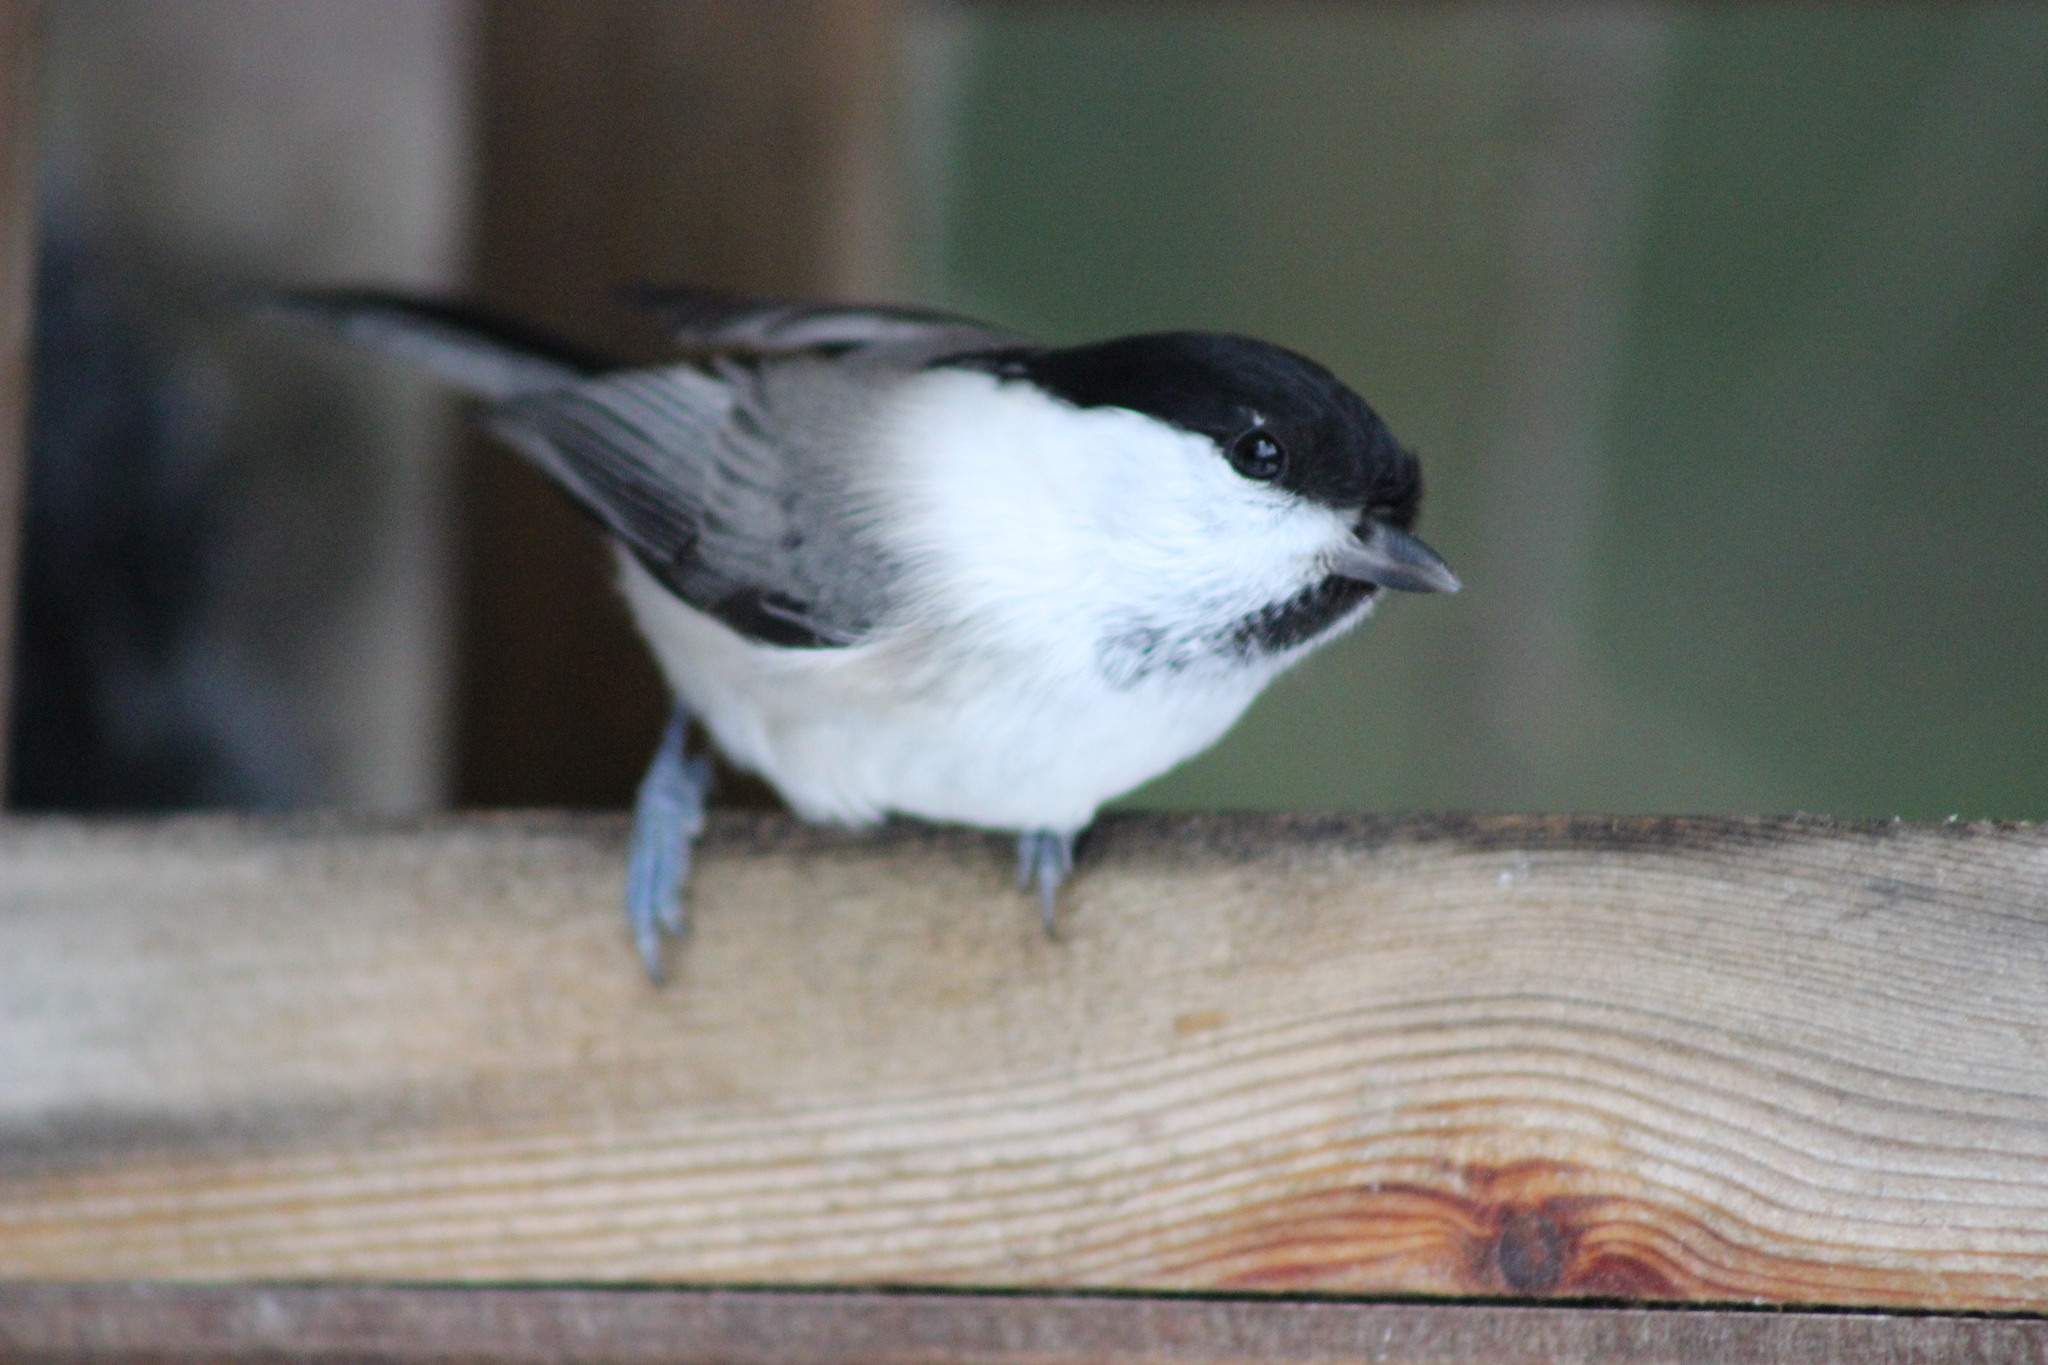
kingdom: Animalia
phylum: Chordata
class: Aves
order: Passeriformes
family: Paridae
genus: Poecile
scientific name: Poecile montanus
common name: Willow tit
